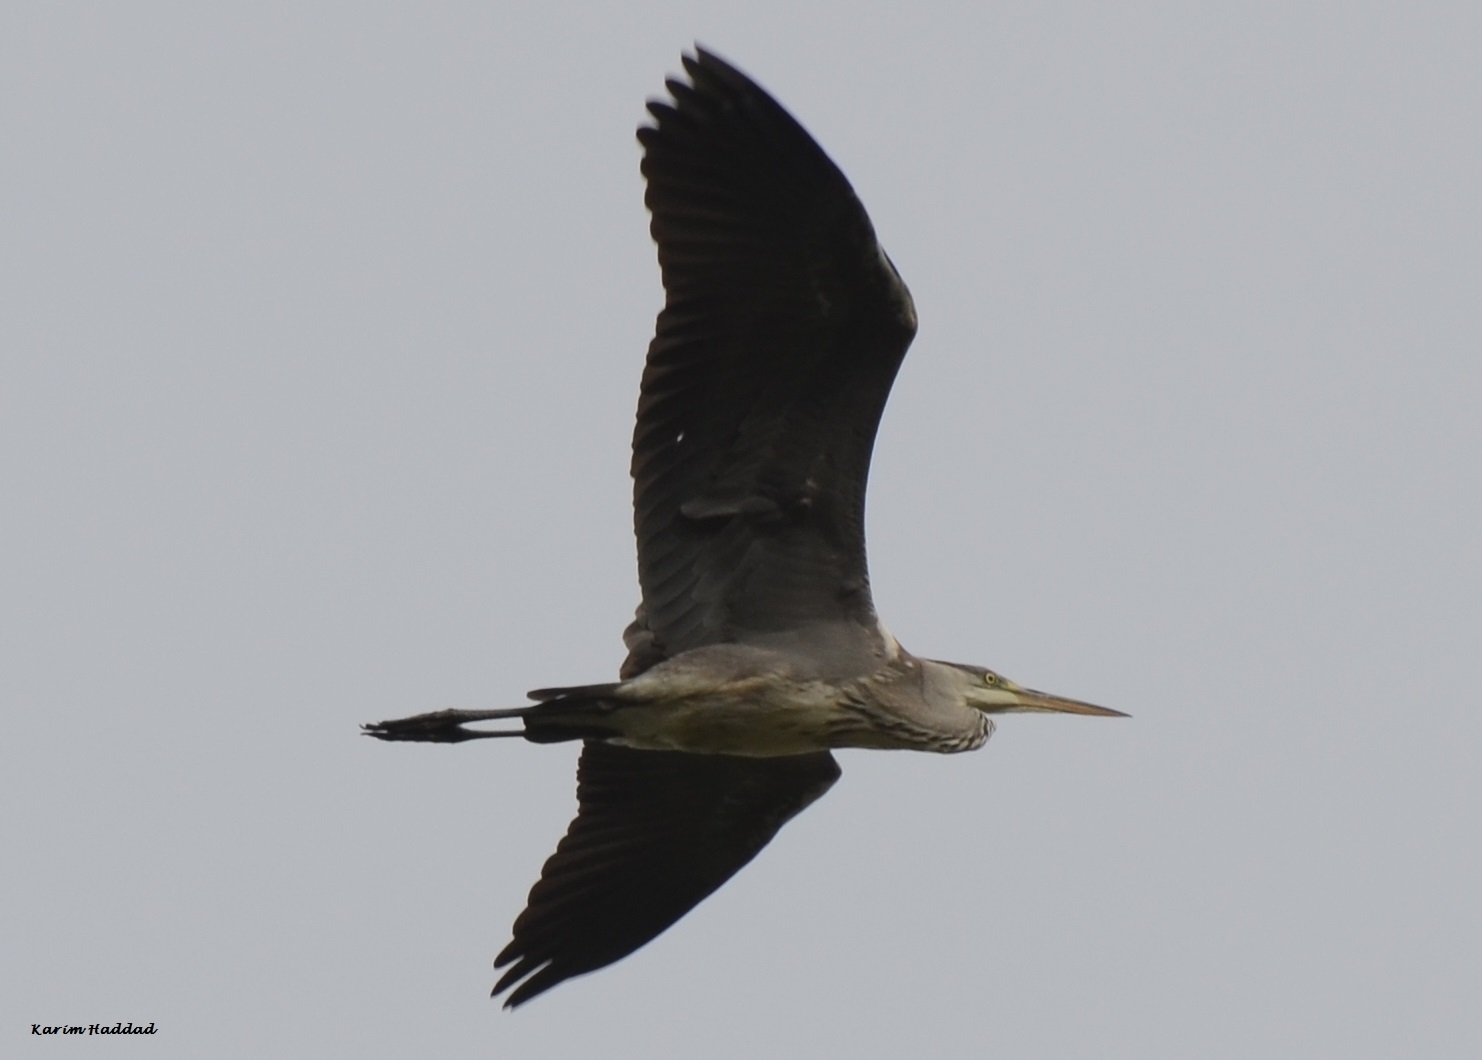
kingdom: Animalia
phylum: Chordata
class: Aves
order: Pelecaniformes
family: Ardeidae
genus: Ardea
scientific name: Ardea cinerea
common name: Grey heron
